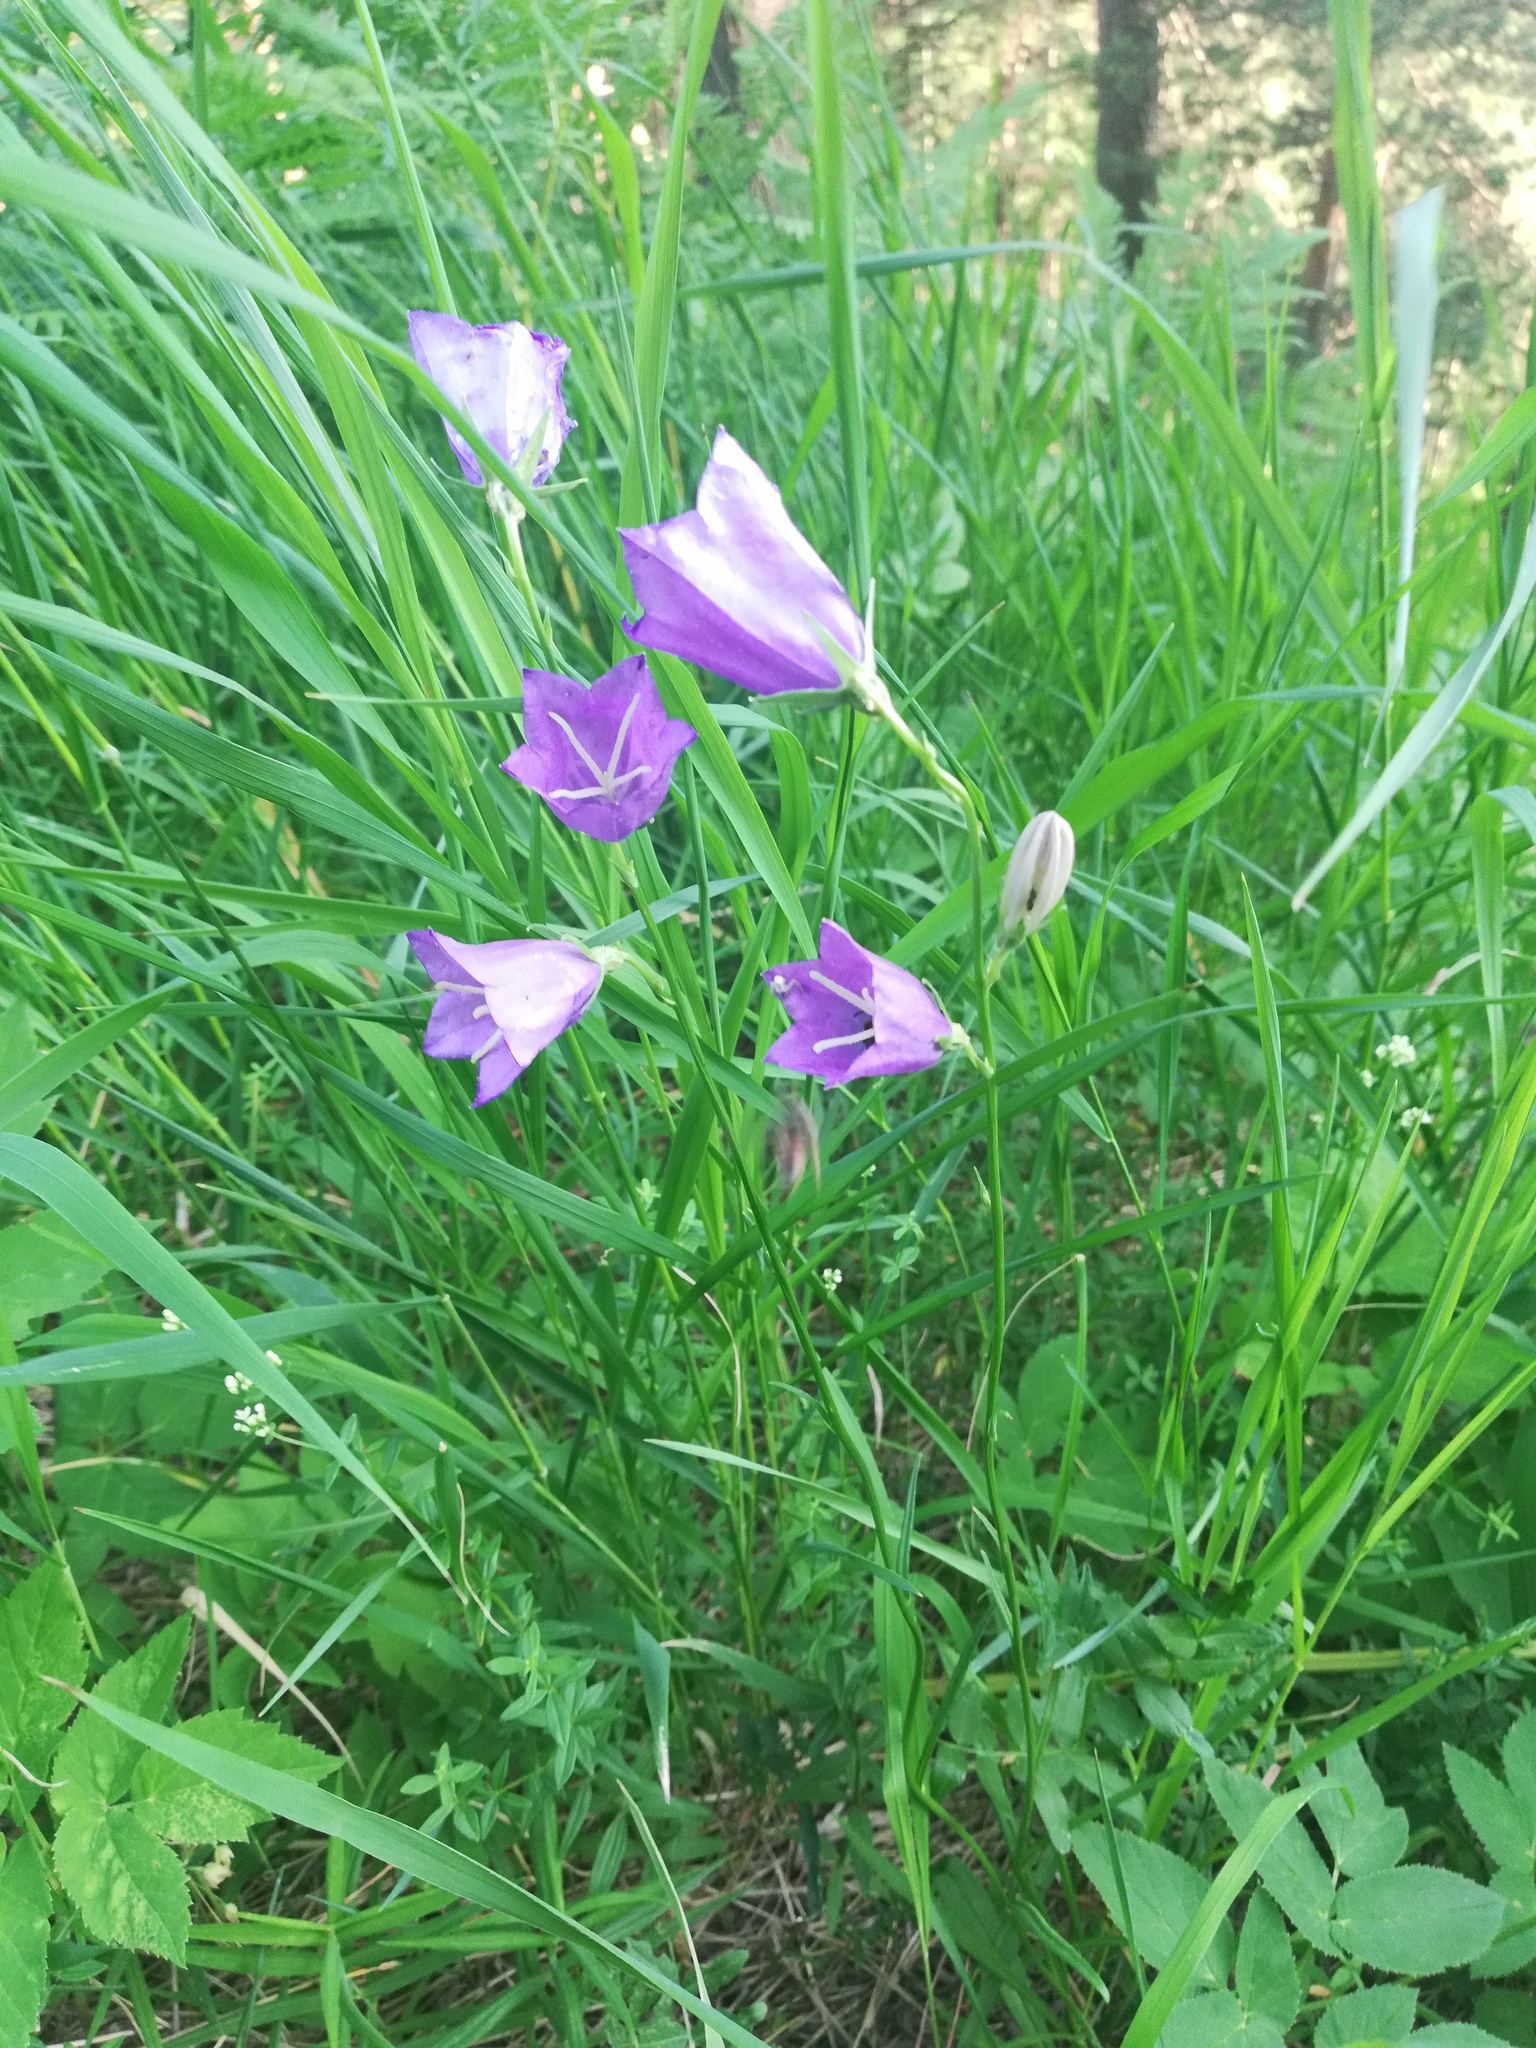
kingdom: Plantae
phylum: Tracheophyta
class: Magnoliopsida
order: Asterales
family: Campanulaceae
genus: Campanula
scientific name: Campanula persicifolia
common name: Peach-leaved bellflower
